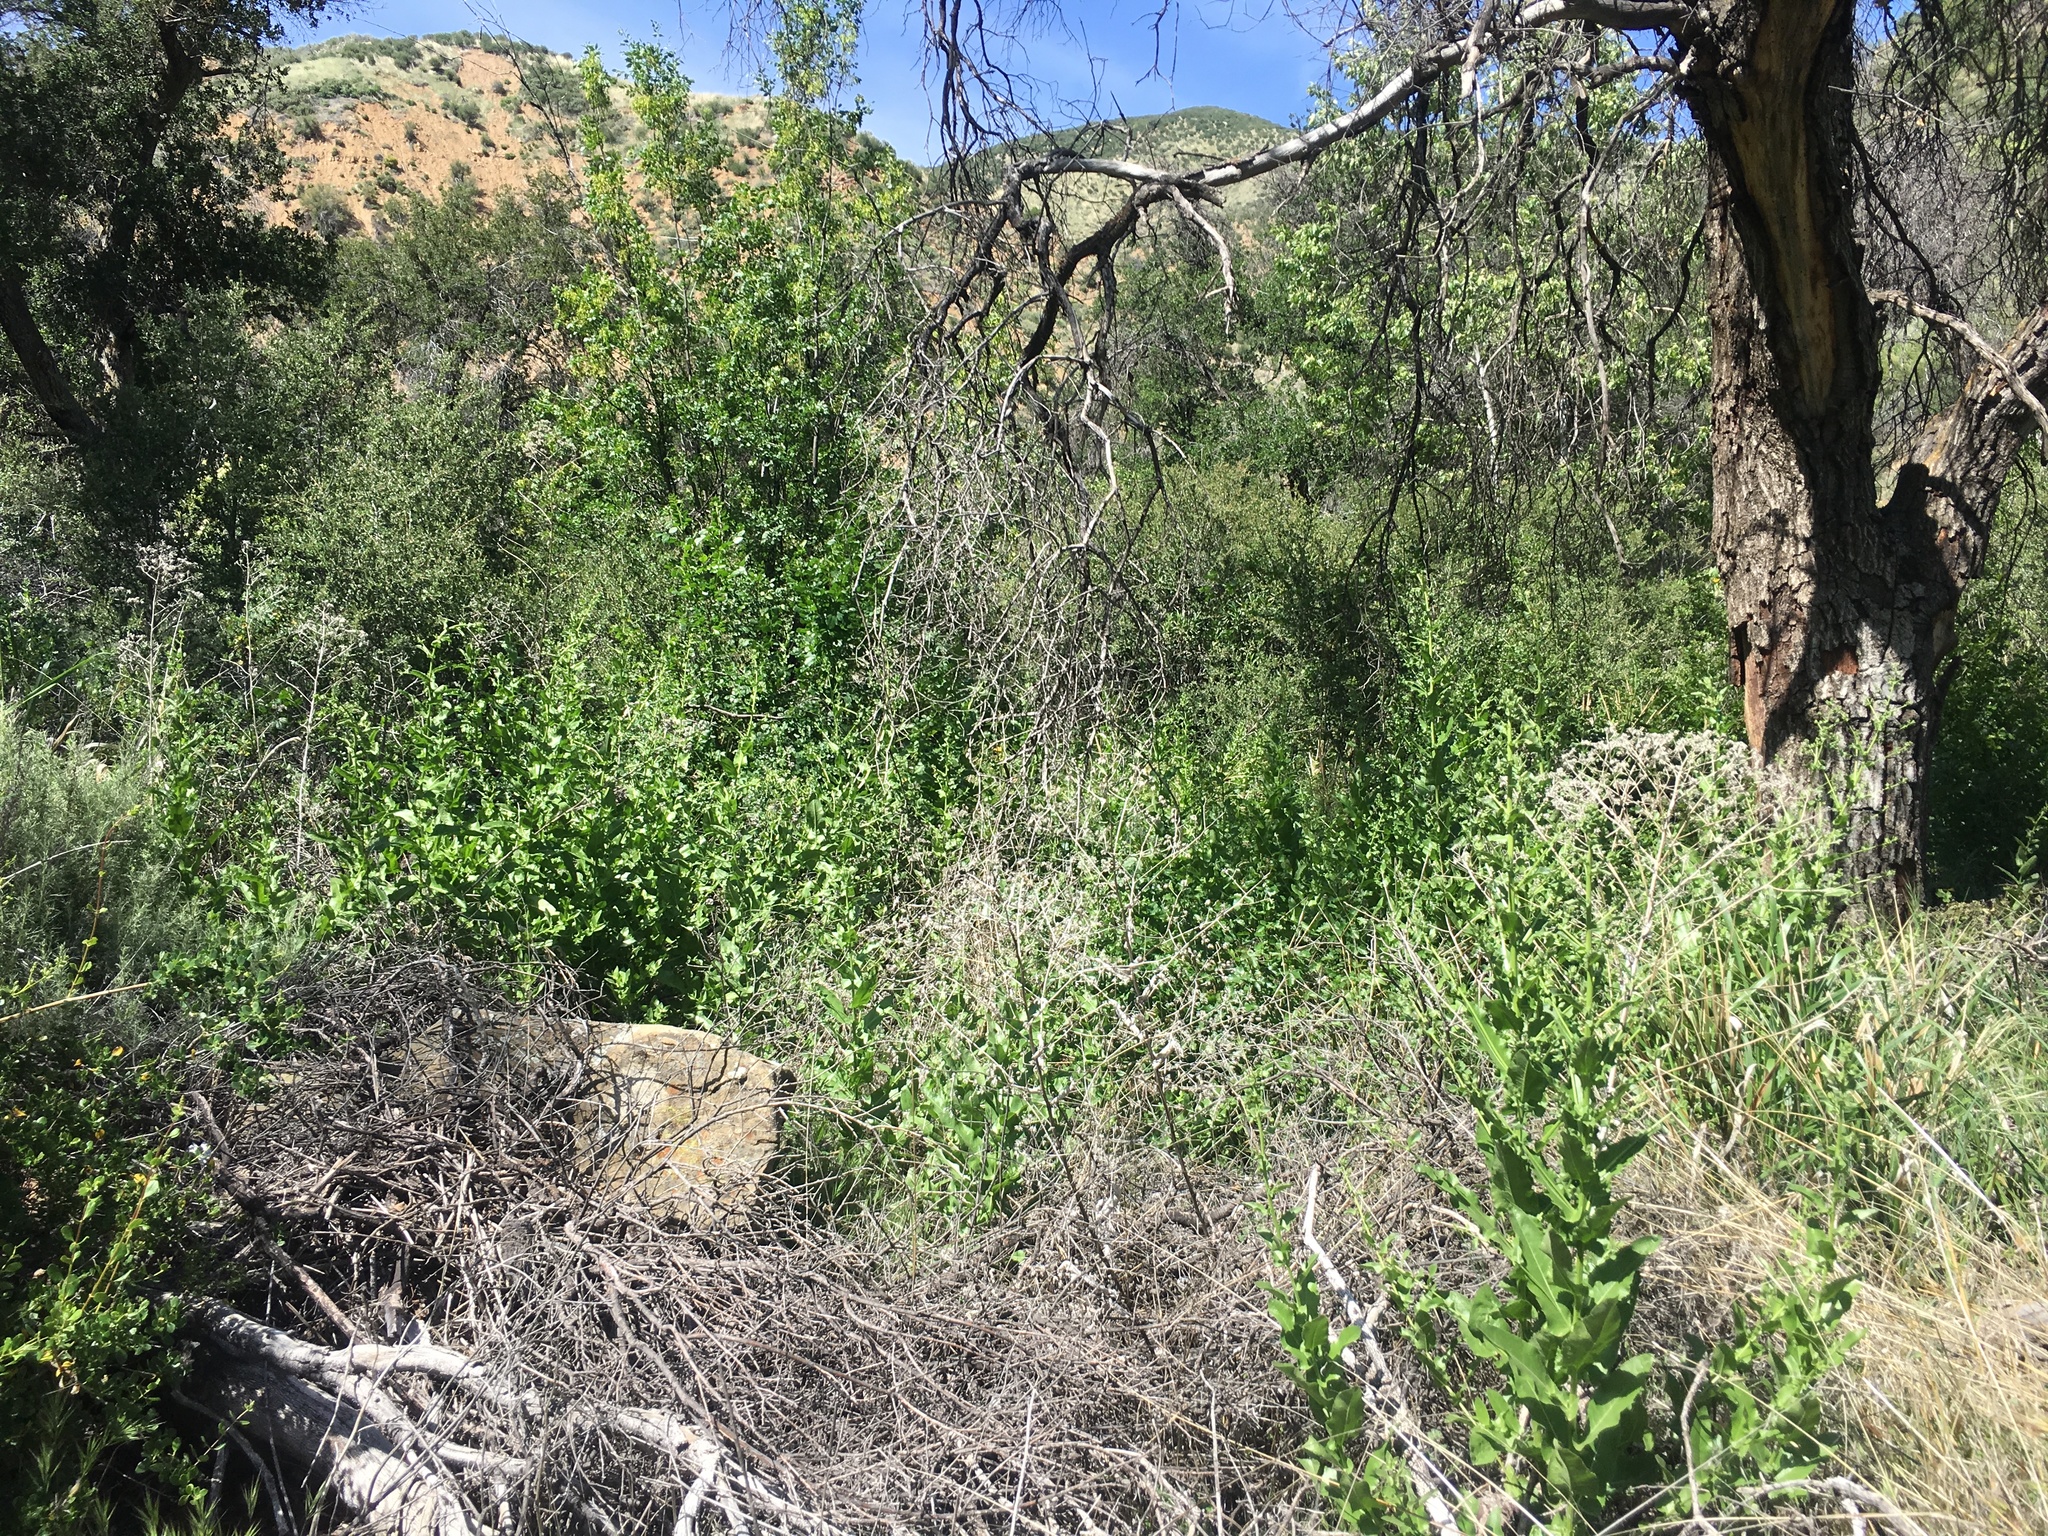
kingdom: Plantae
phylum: Tracheophyta
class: Magnoliopsida
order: Asterales
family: Asteraceae
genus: Acourtia
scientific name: Acourtia microcephala
